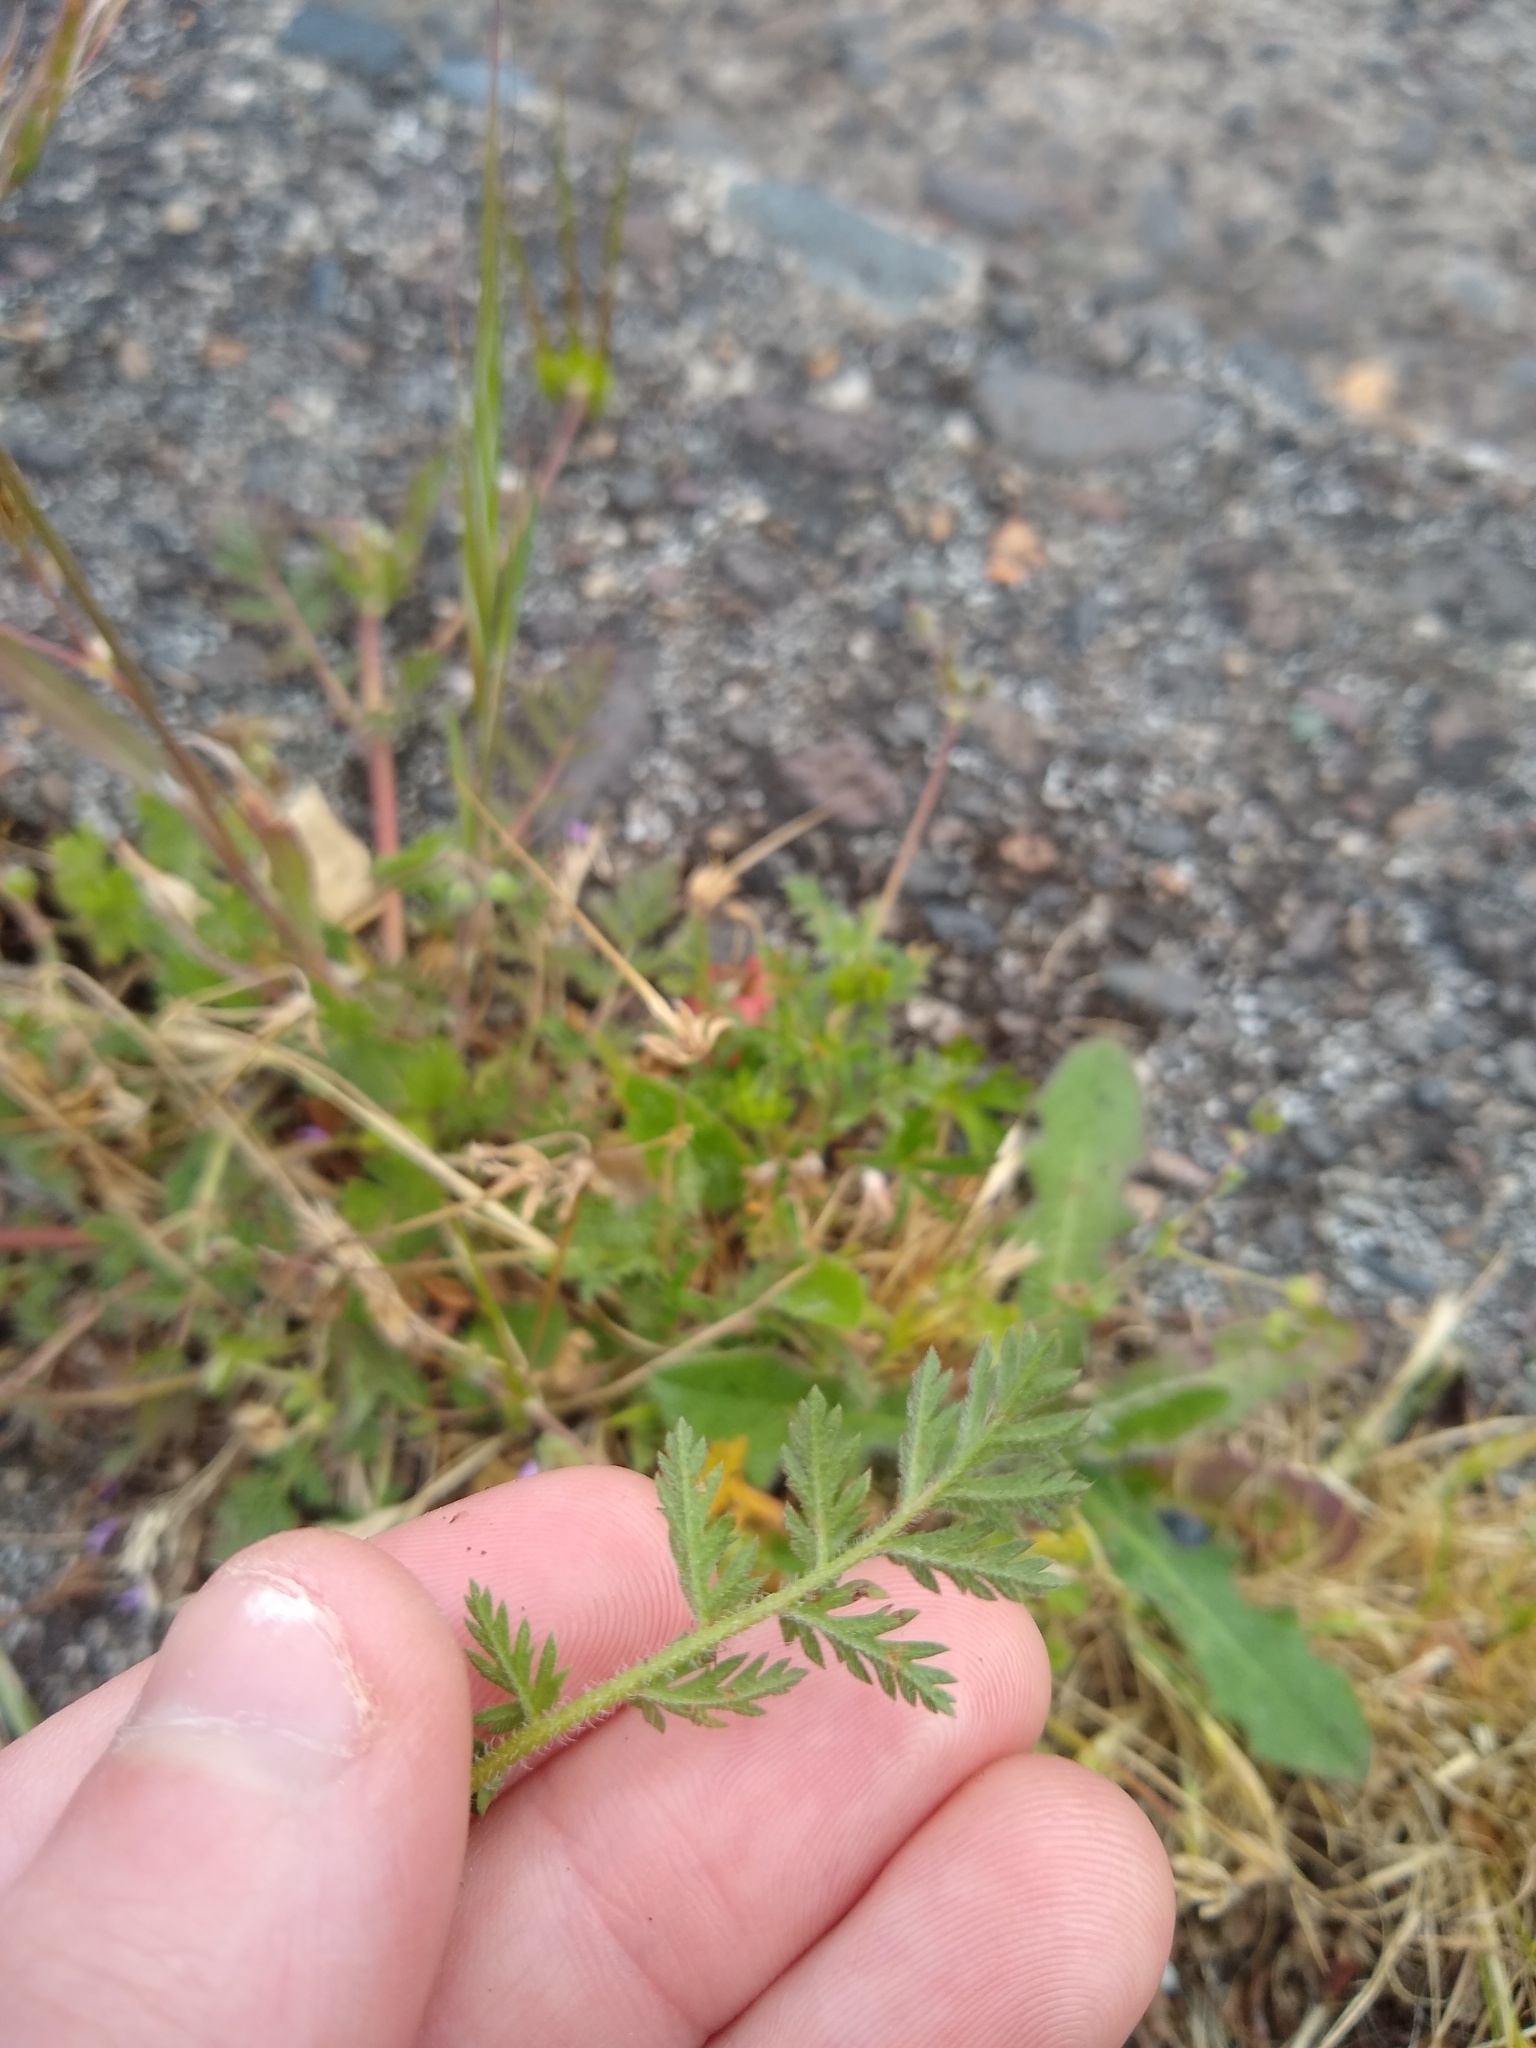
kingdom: Plantae
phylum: Tracheophyta
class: Magnoliopsida
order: Geraniales
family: Geraniaceae
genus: Erodium
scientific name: Erodium cicutarium
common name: Common stork's-bill
